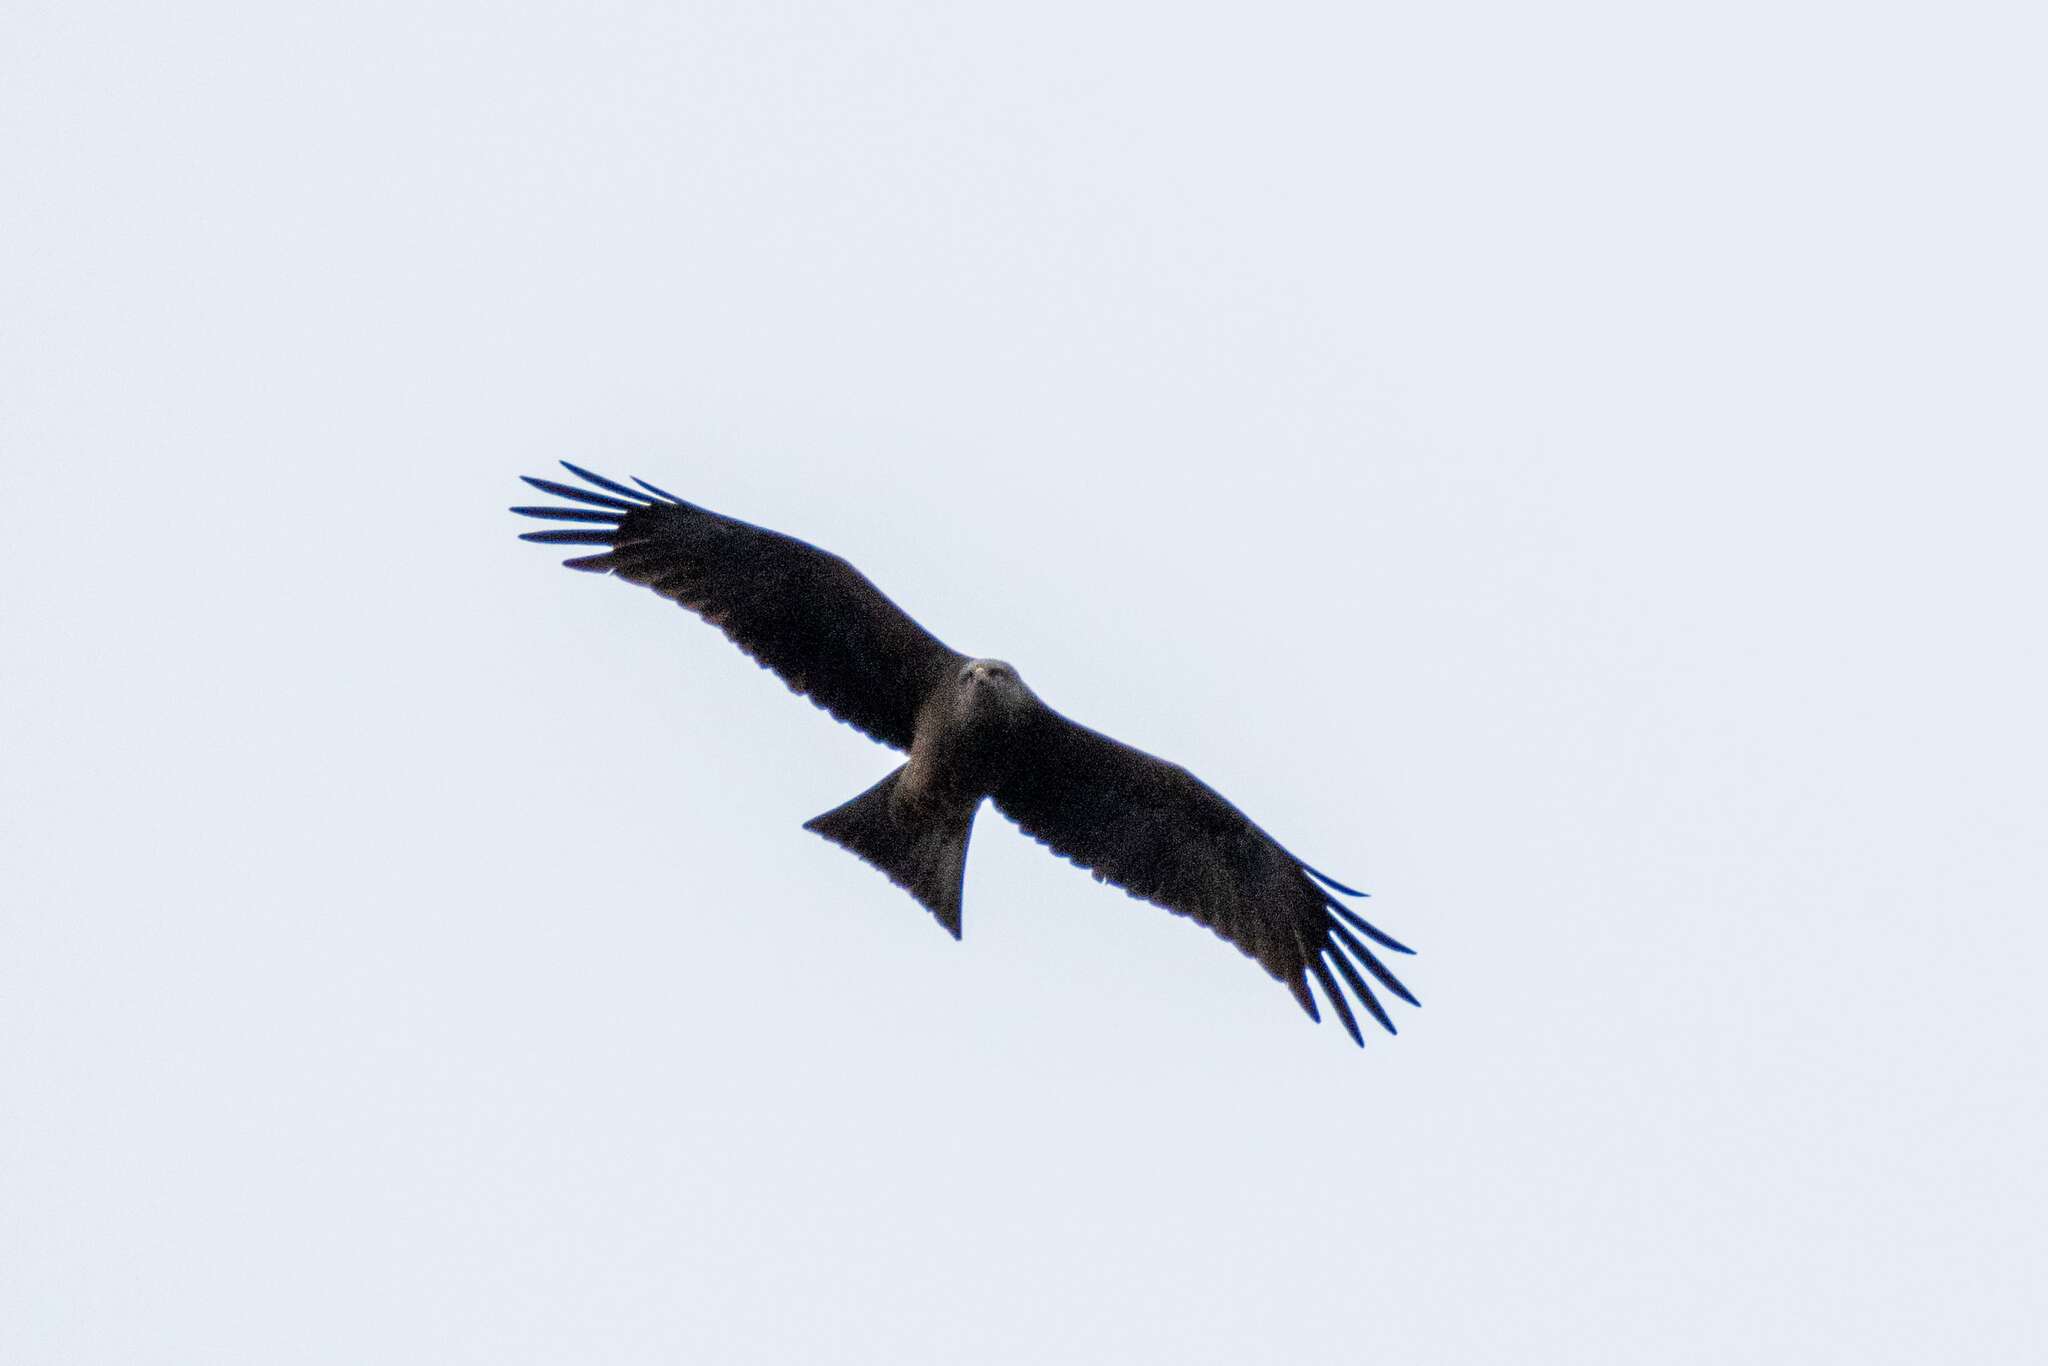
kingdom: Animalia
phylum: Chordata
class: Aves
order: Accipitriformes
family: Accipitridae
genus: Milvus
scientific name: Milvus migrans
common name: Black kite
